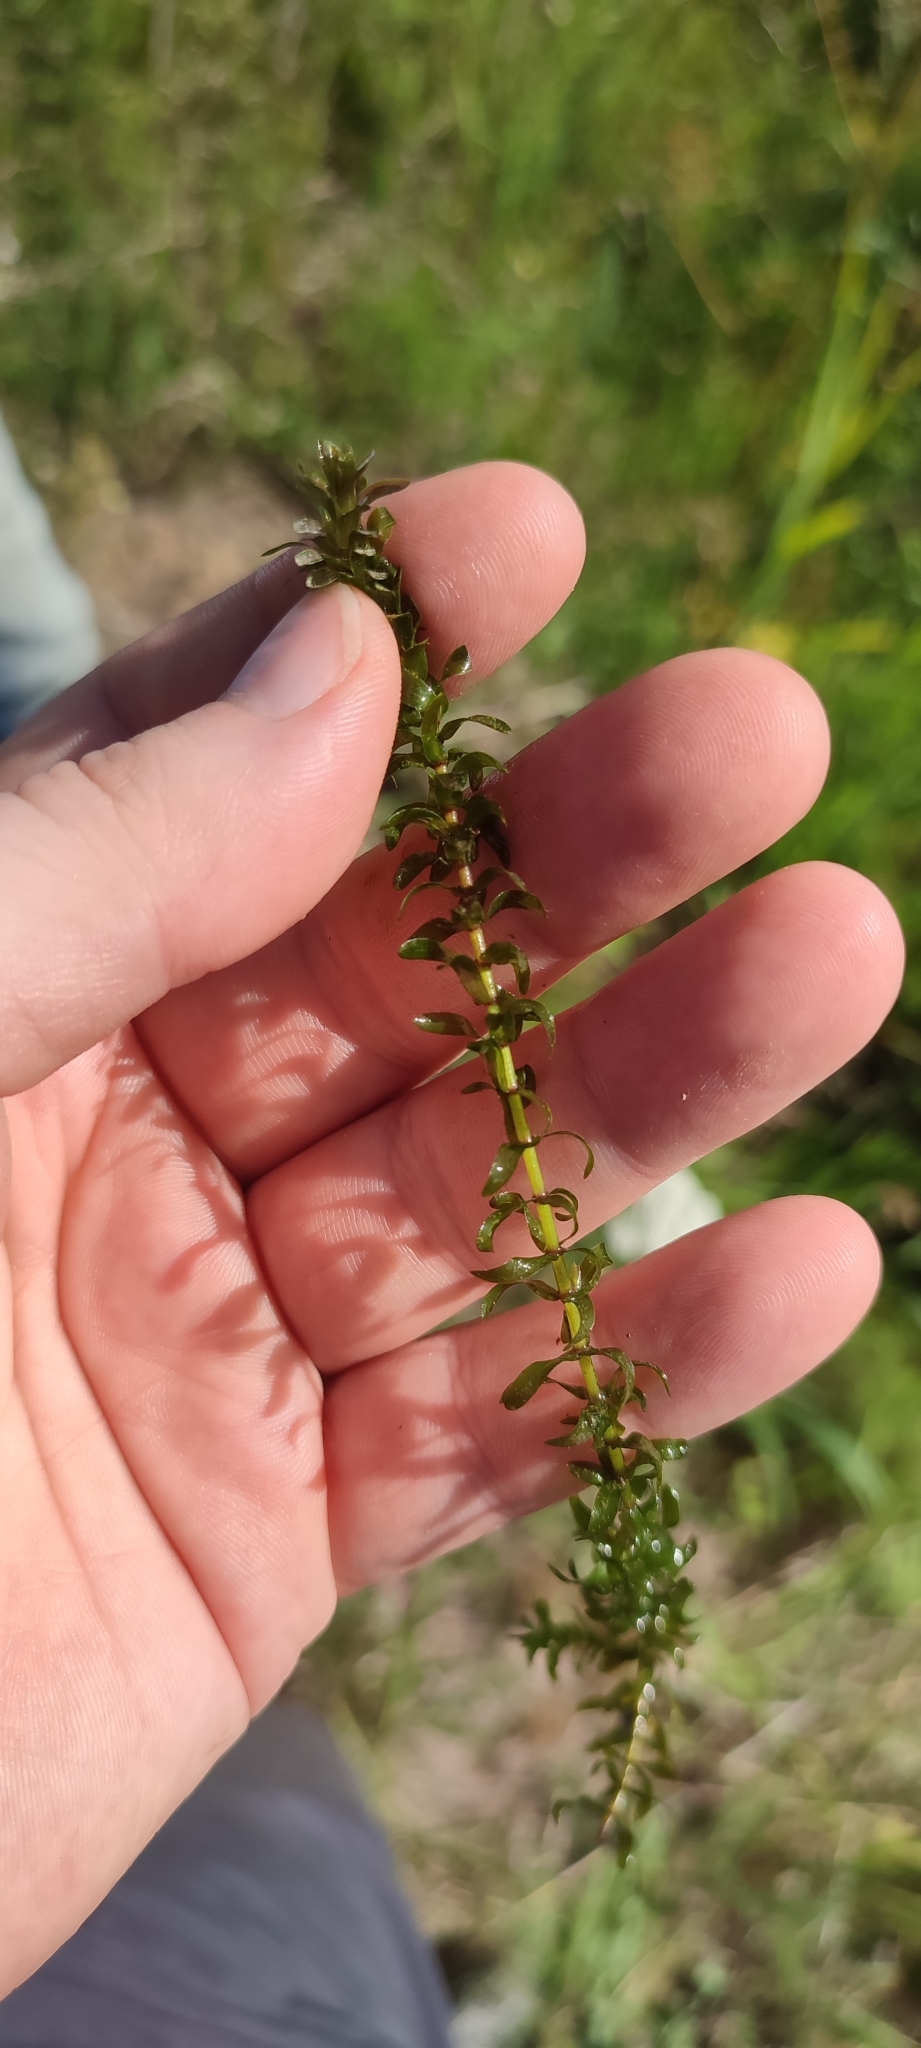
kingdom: Plantae
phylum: Tracheophyta
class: Liliopsida
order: Alismatales
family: Hydrocharitaceae
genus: Elodea
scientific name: Elodea canadensis
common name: Canadian waterweed
